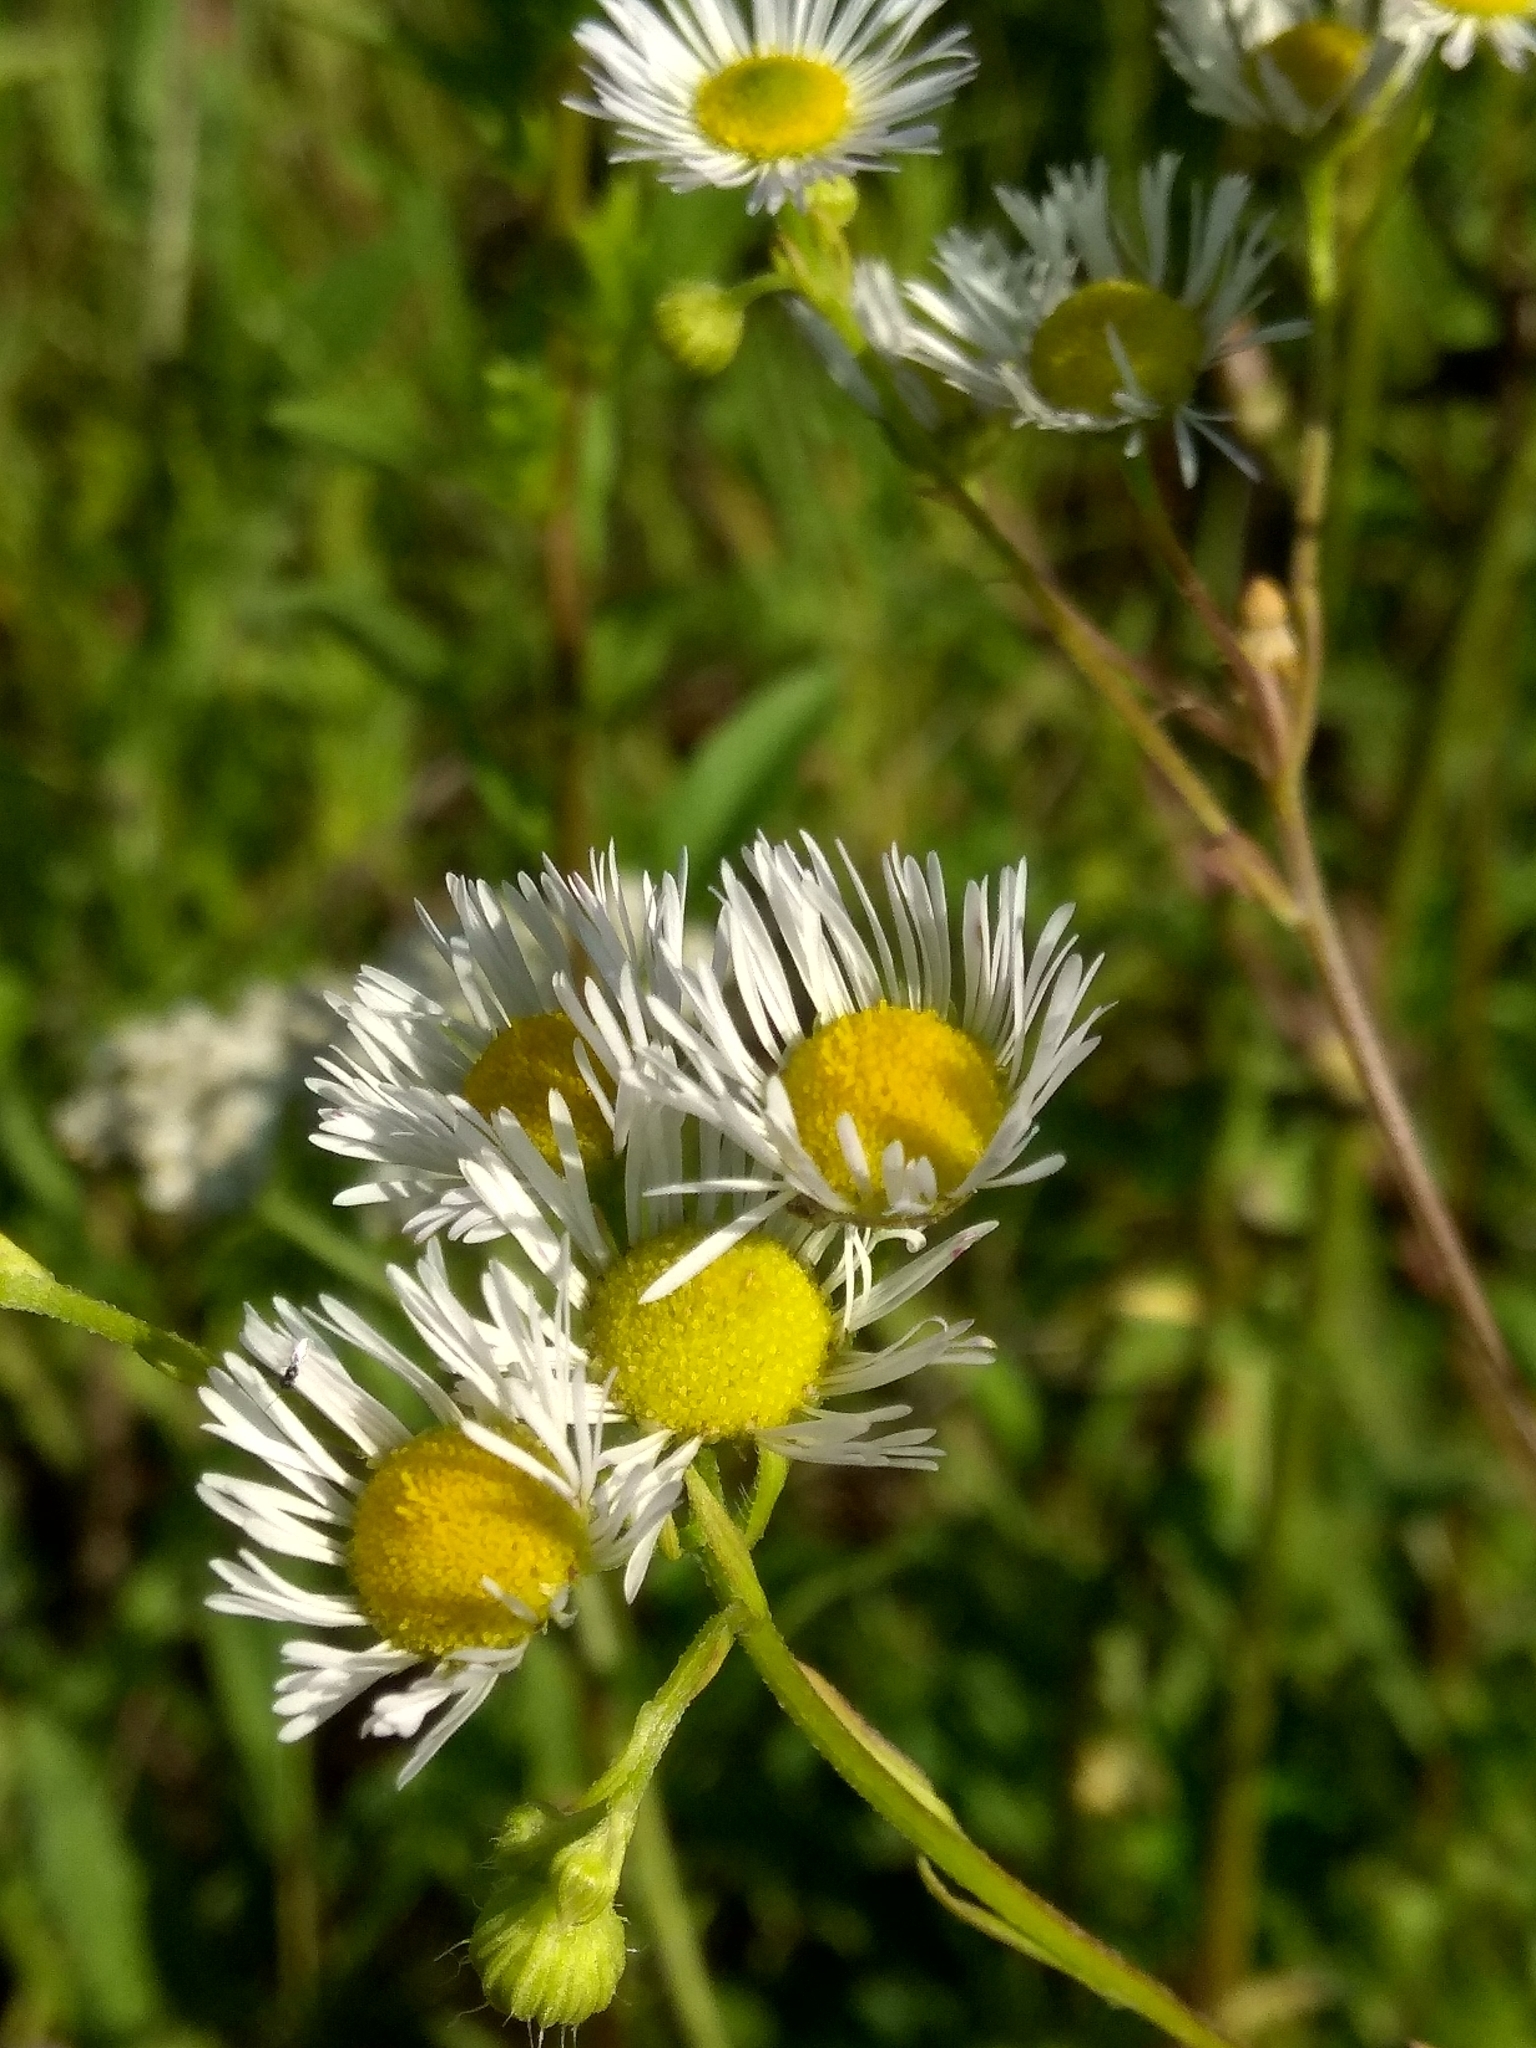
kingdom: Plantae
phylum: Tracheophyta
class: Magnoliopsida
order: Asterales
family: Asteraceae
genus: Erigeron
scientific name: Erigeron annuus
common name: Tall fleabane
